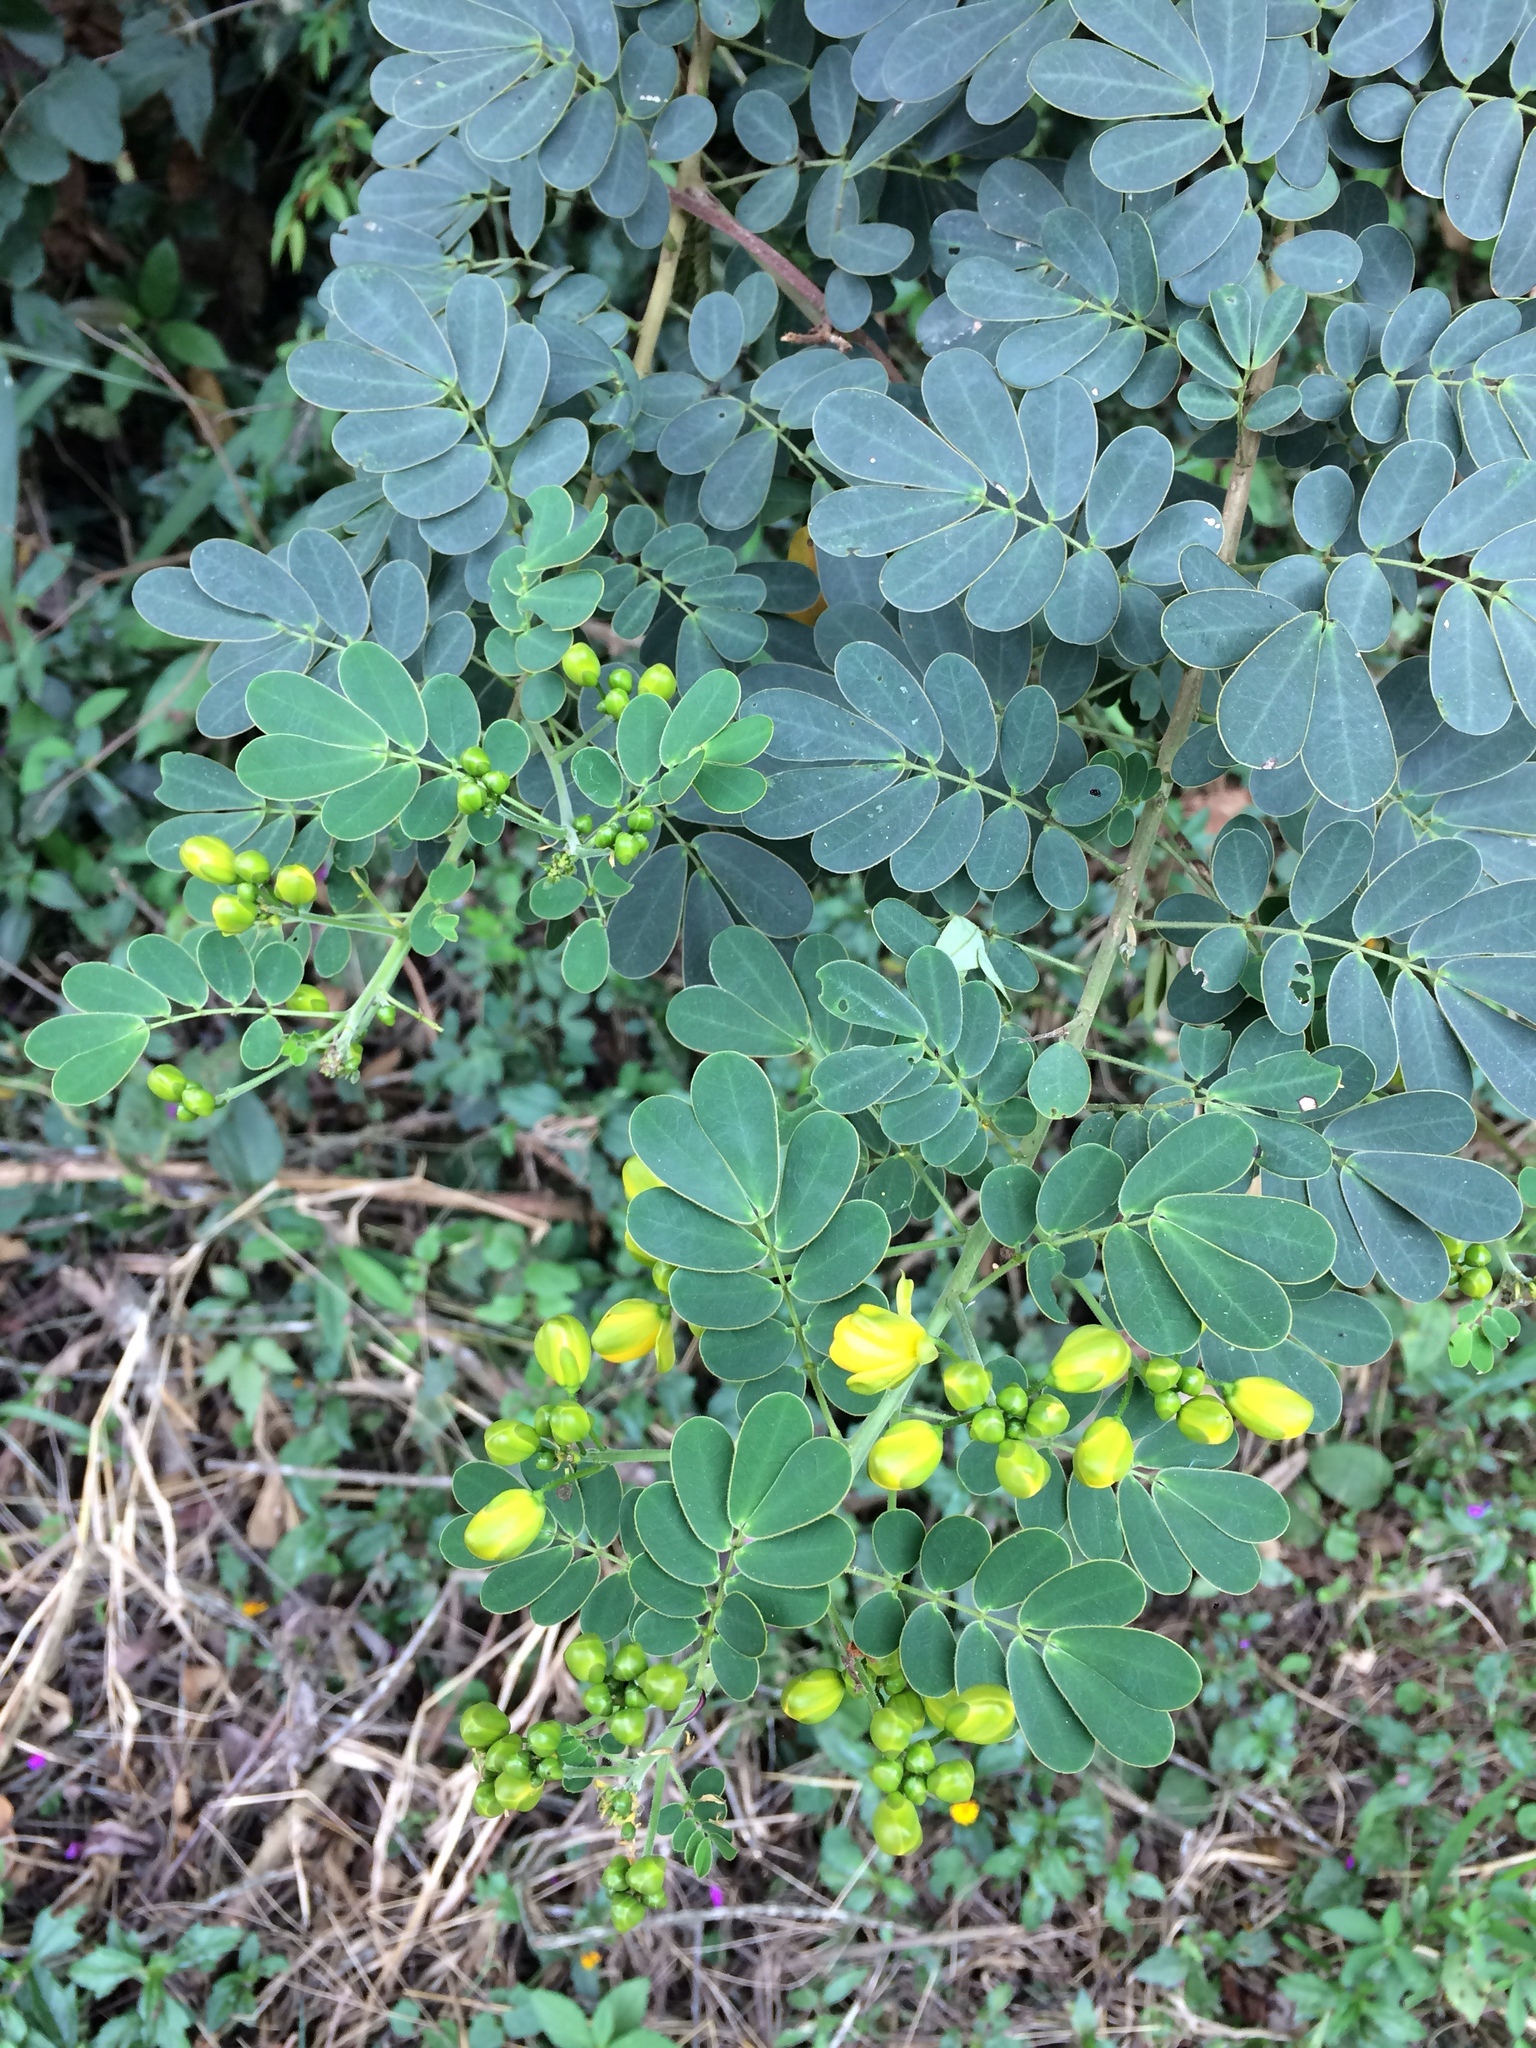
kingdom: Plantae
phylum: Tracheophyta
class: Magnoliopsida
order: Fabales
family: Fabaceae
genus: Senna
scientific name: Senna pendula
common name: Easter cassia
